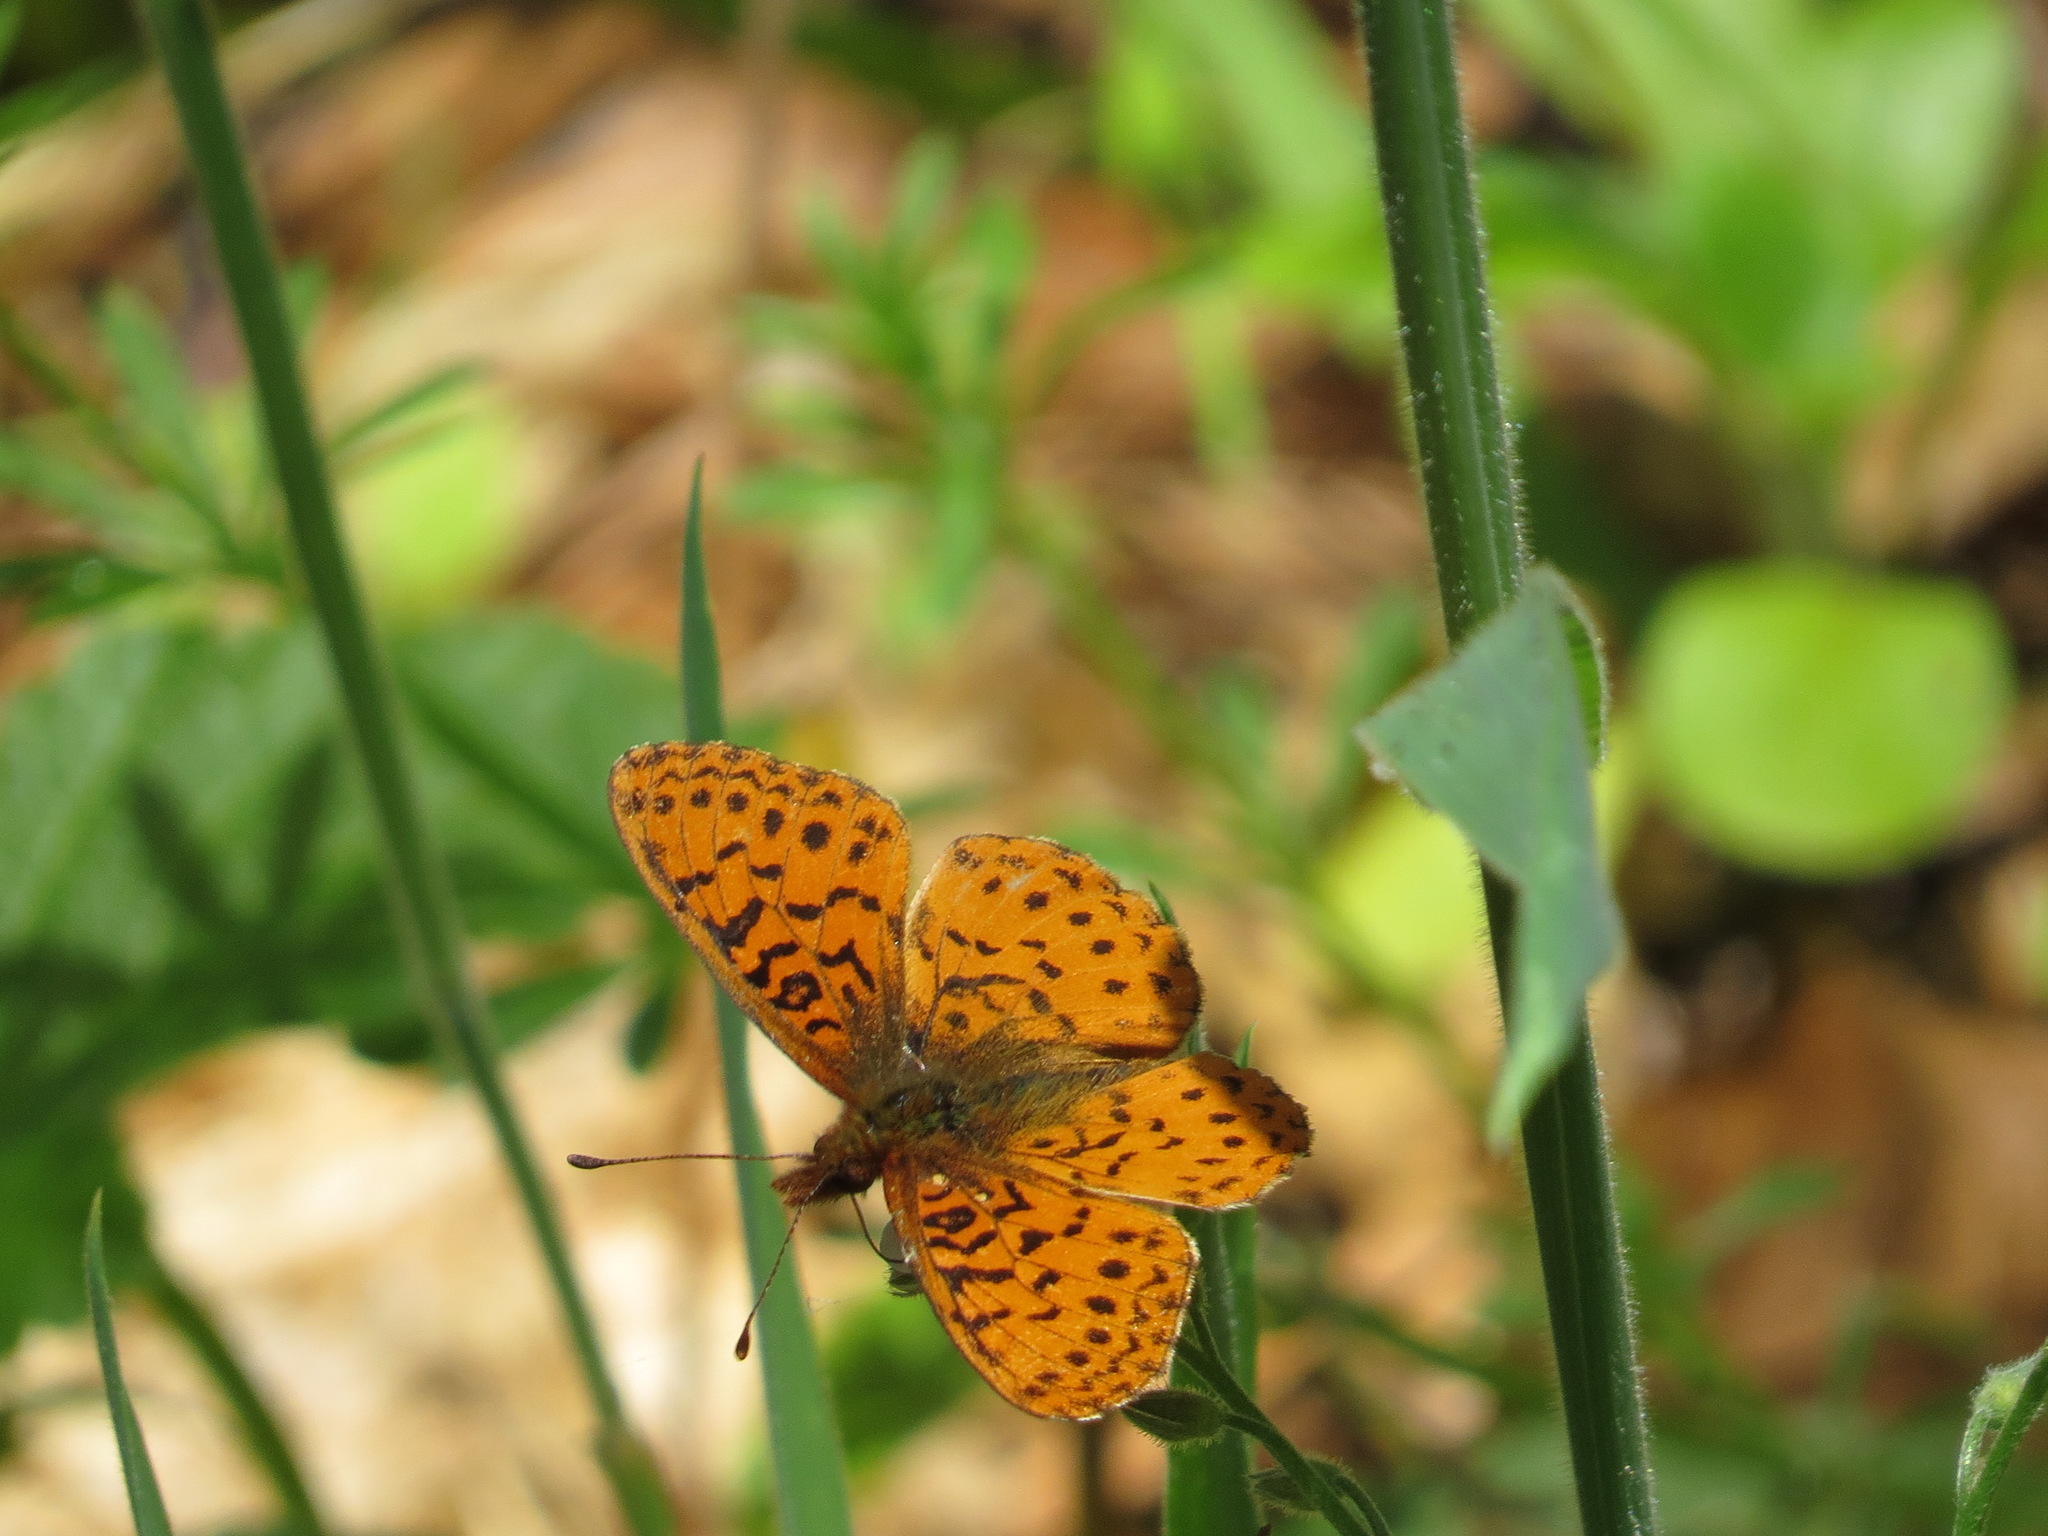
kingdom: Animalia
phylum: Arthropoda
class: Insecta
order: Lepidoptera
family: Nymphalidae
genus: Boloria
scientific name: Boloria epithore
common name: Pacific fritillary
